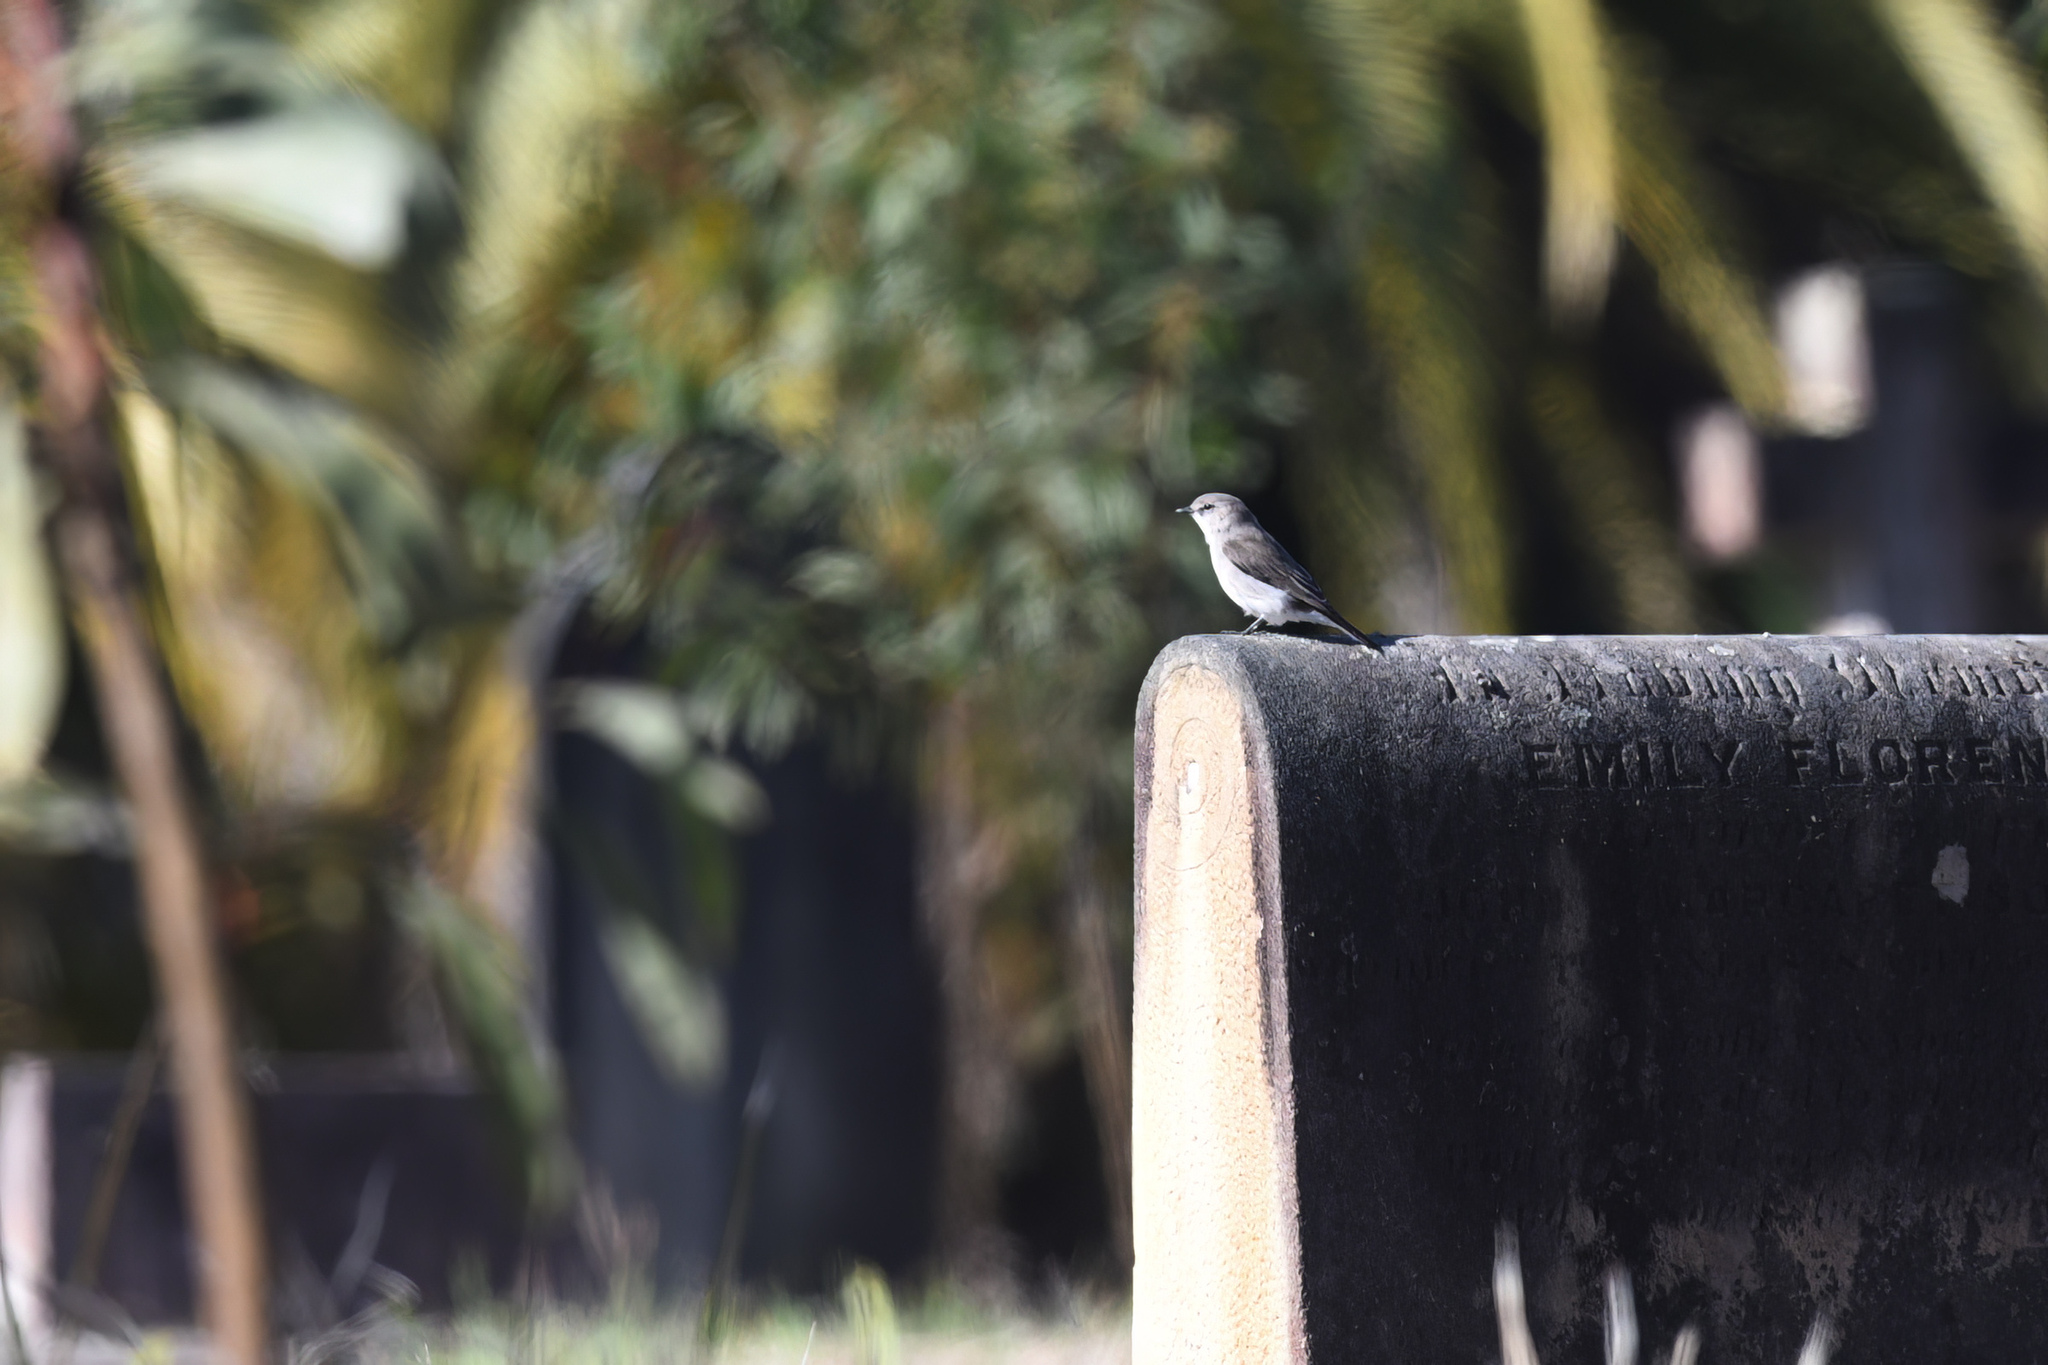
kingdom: Animalia
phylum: Chordata
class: Aves
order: Passeriformes
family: Petroicidae
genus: Microeca
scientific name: Microeca fascinans
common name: Jacky winter
